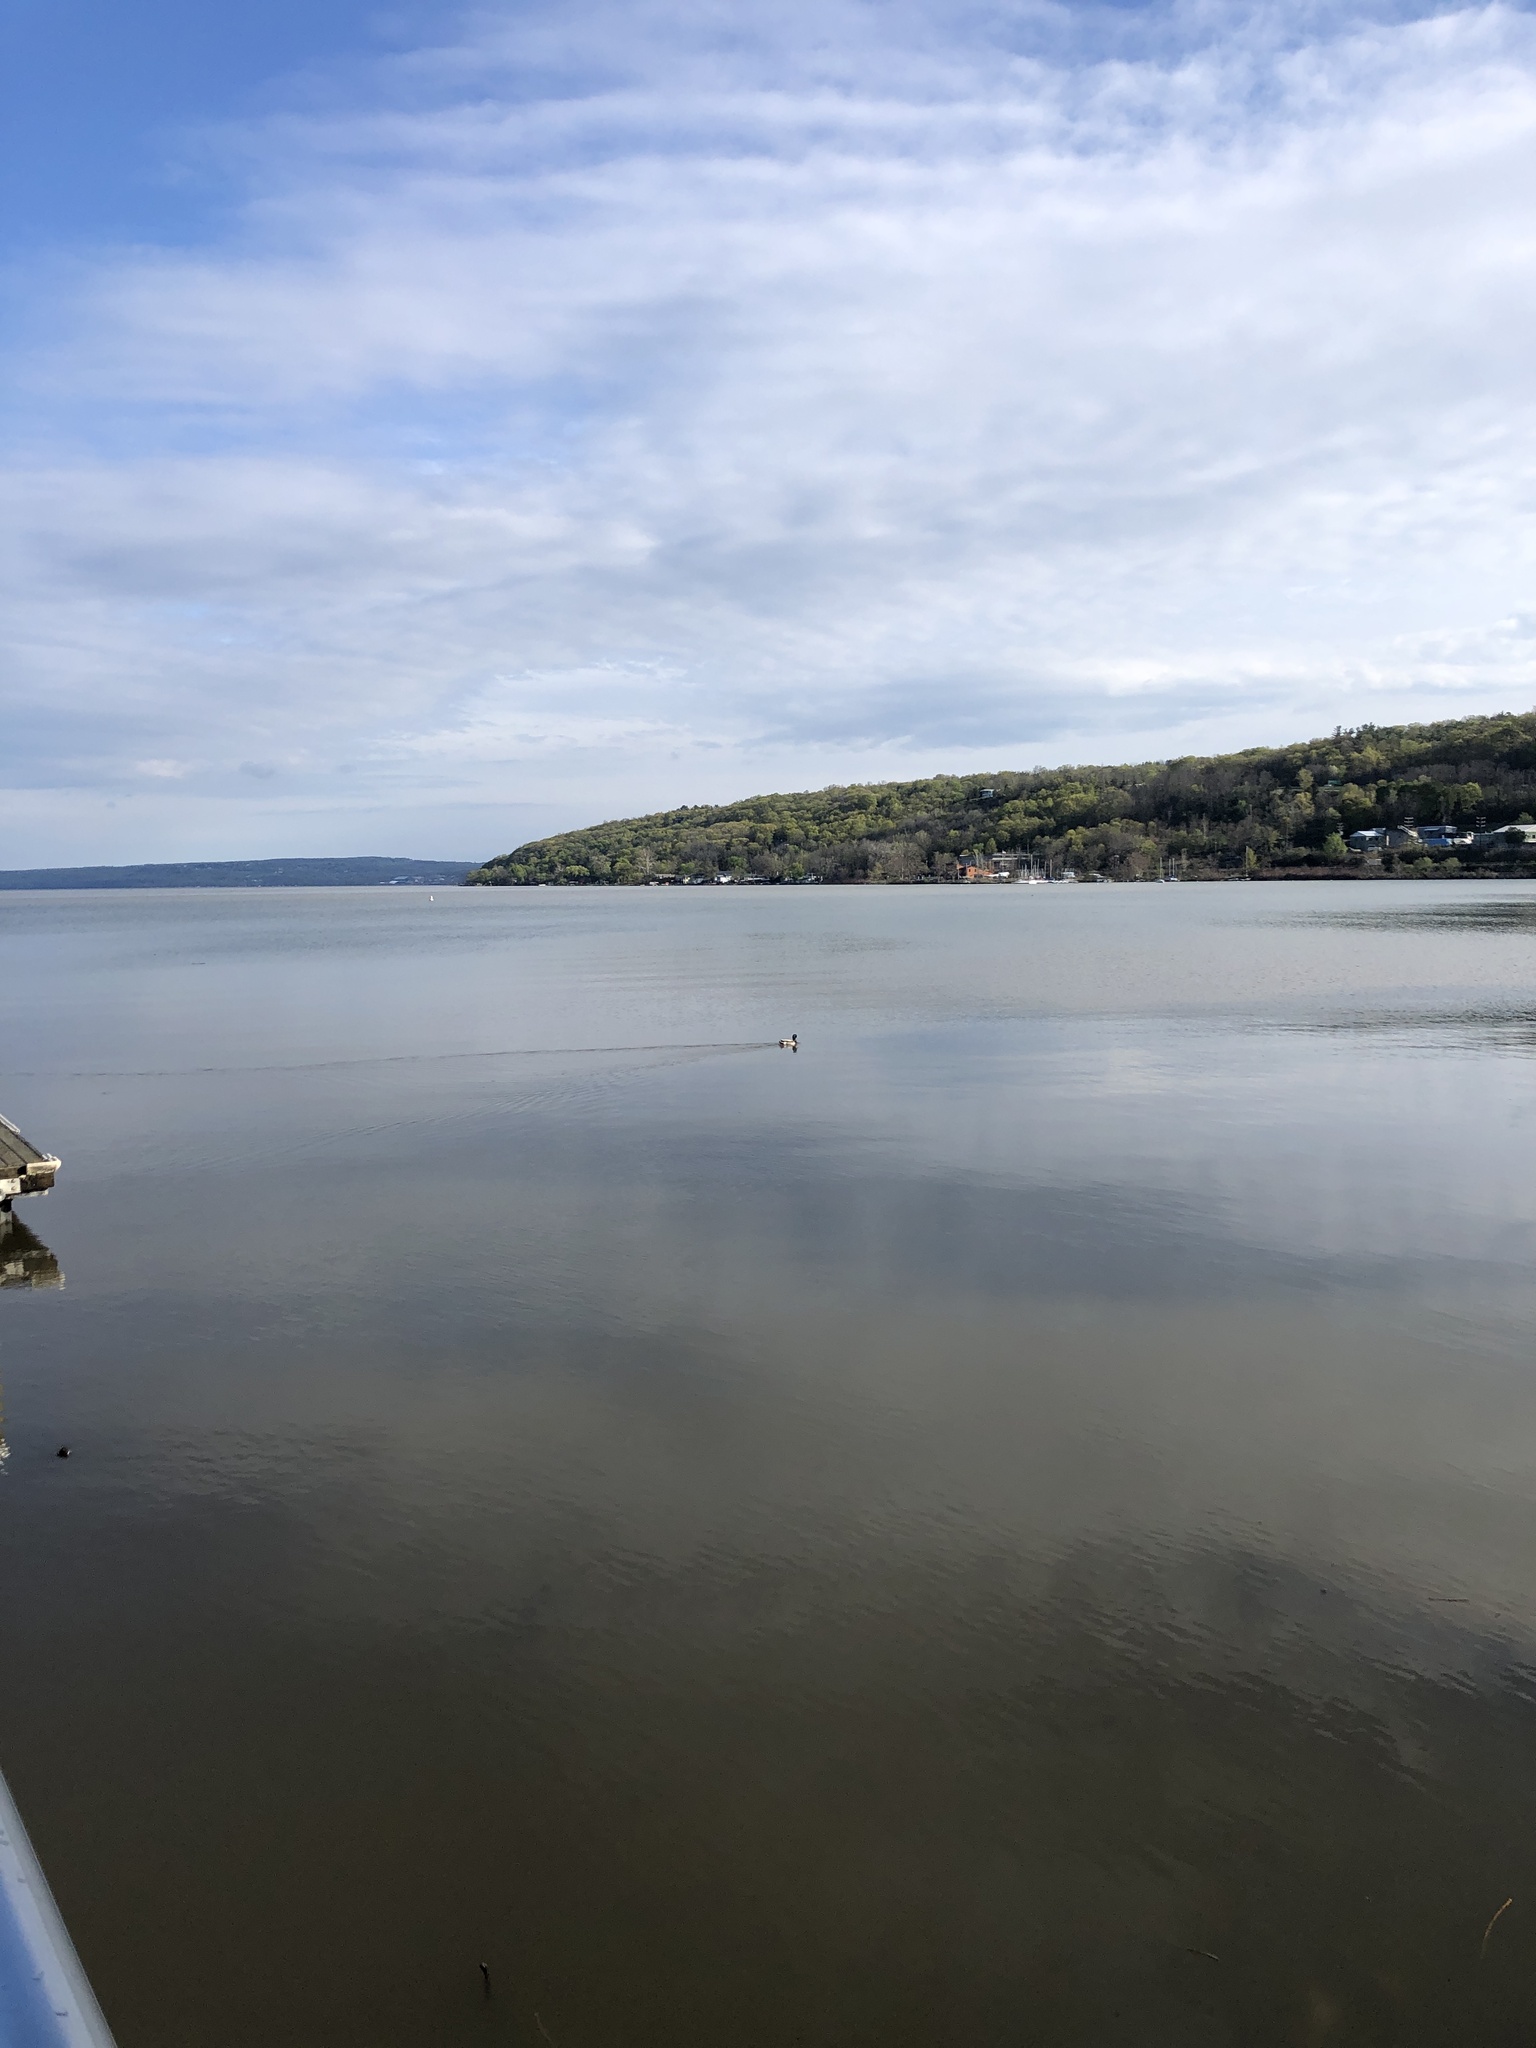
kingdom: Animalia
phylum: Chordata
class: Aves
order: Anseriformes
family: Anatidae
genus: Anas
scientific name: Anas platyrhynchos
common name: Mallard
